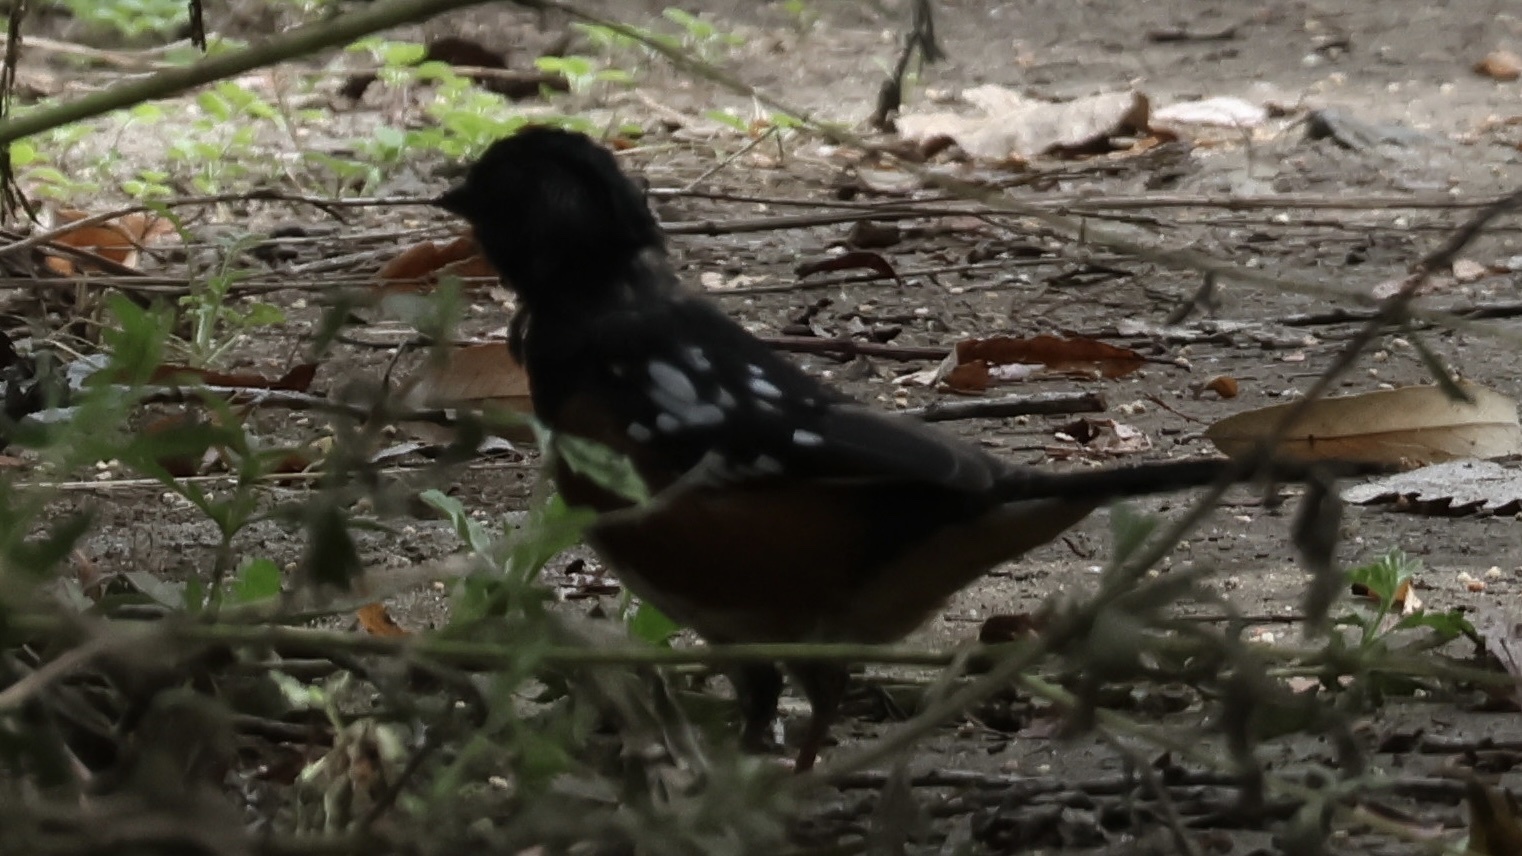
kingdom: Animalia
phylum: Chordata
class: Aves
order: Passeriformes
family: Passerellidae
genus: Pipilo
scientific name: Pipilo maculatus
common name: Spotted towhee
